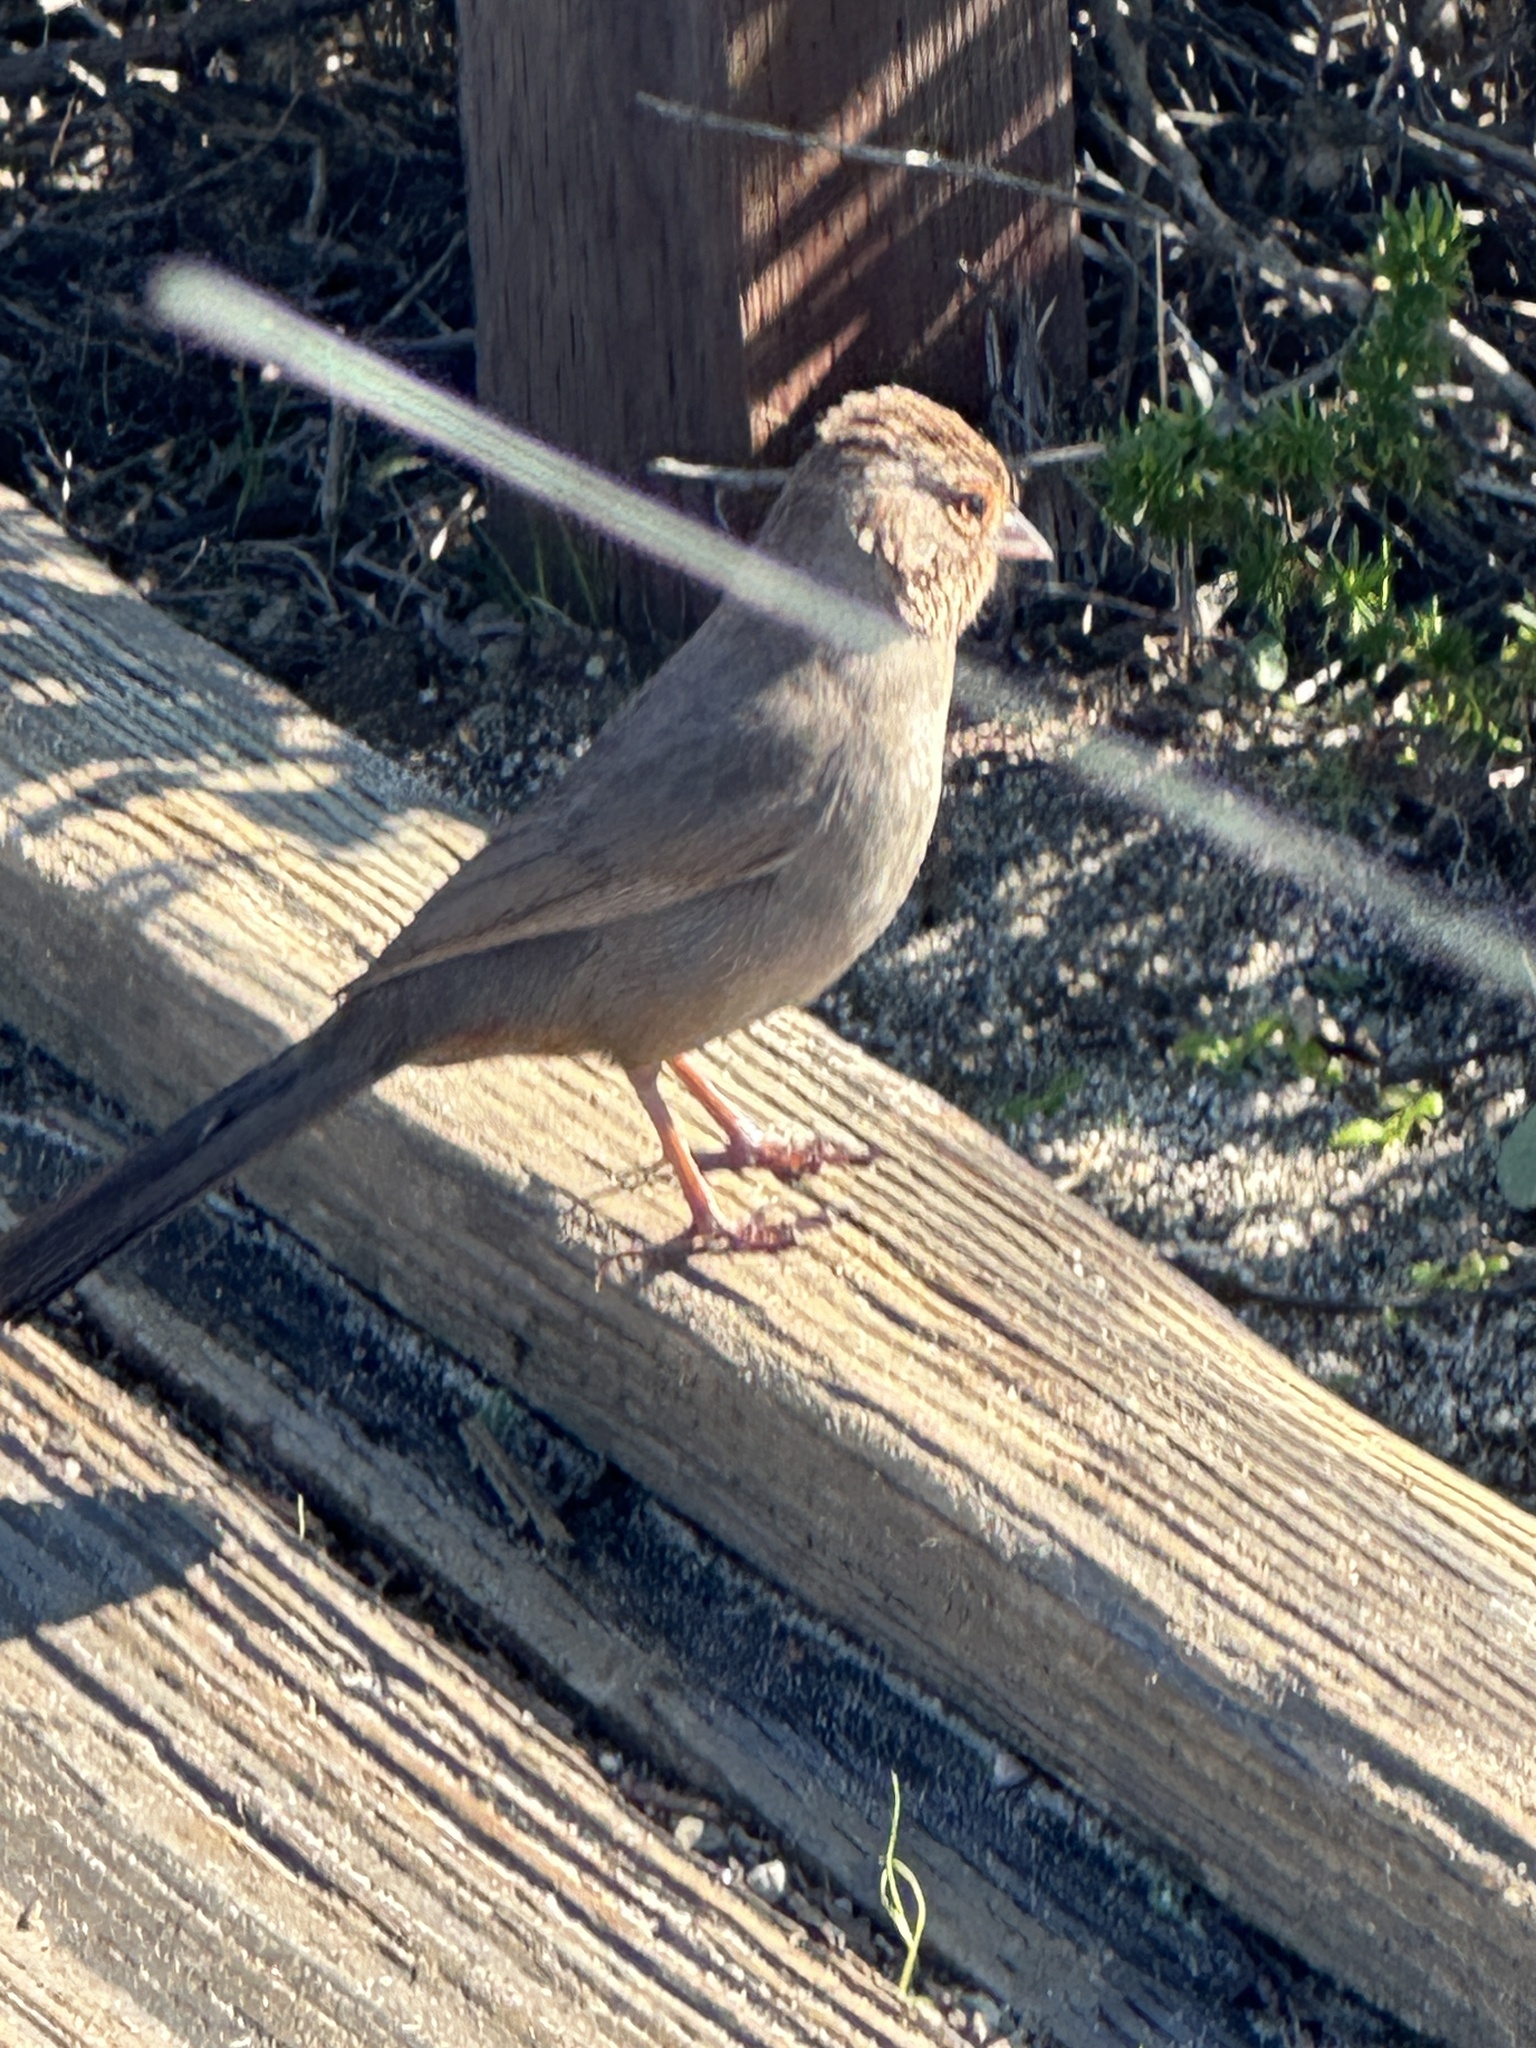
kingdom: Animalia
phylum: Chordata
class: Aves
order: Passeriformes
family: Passerellidae
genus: Melozone
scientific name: Melozone crissalis
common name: California towhee
